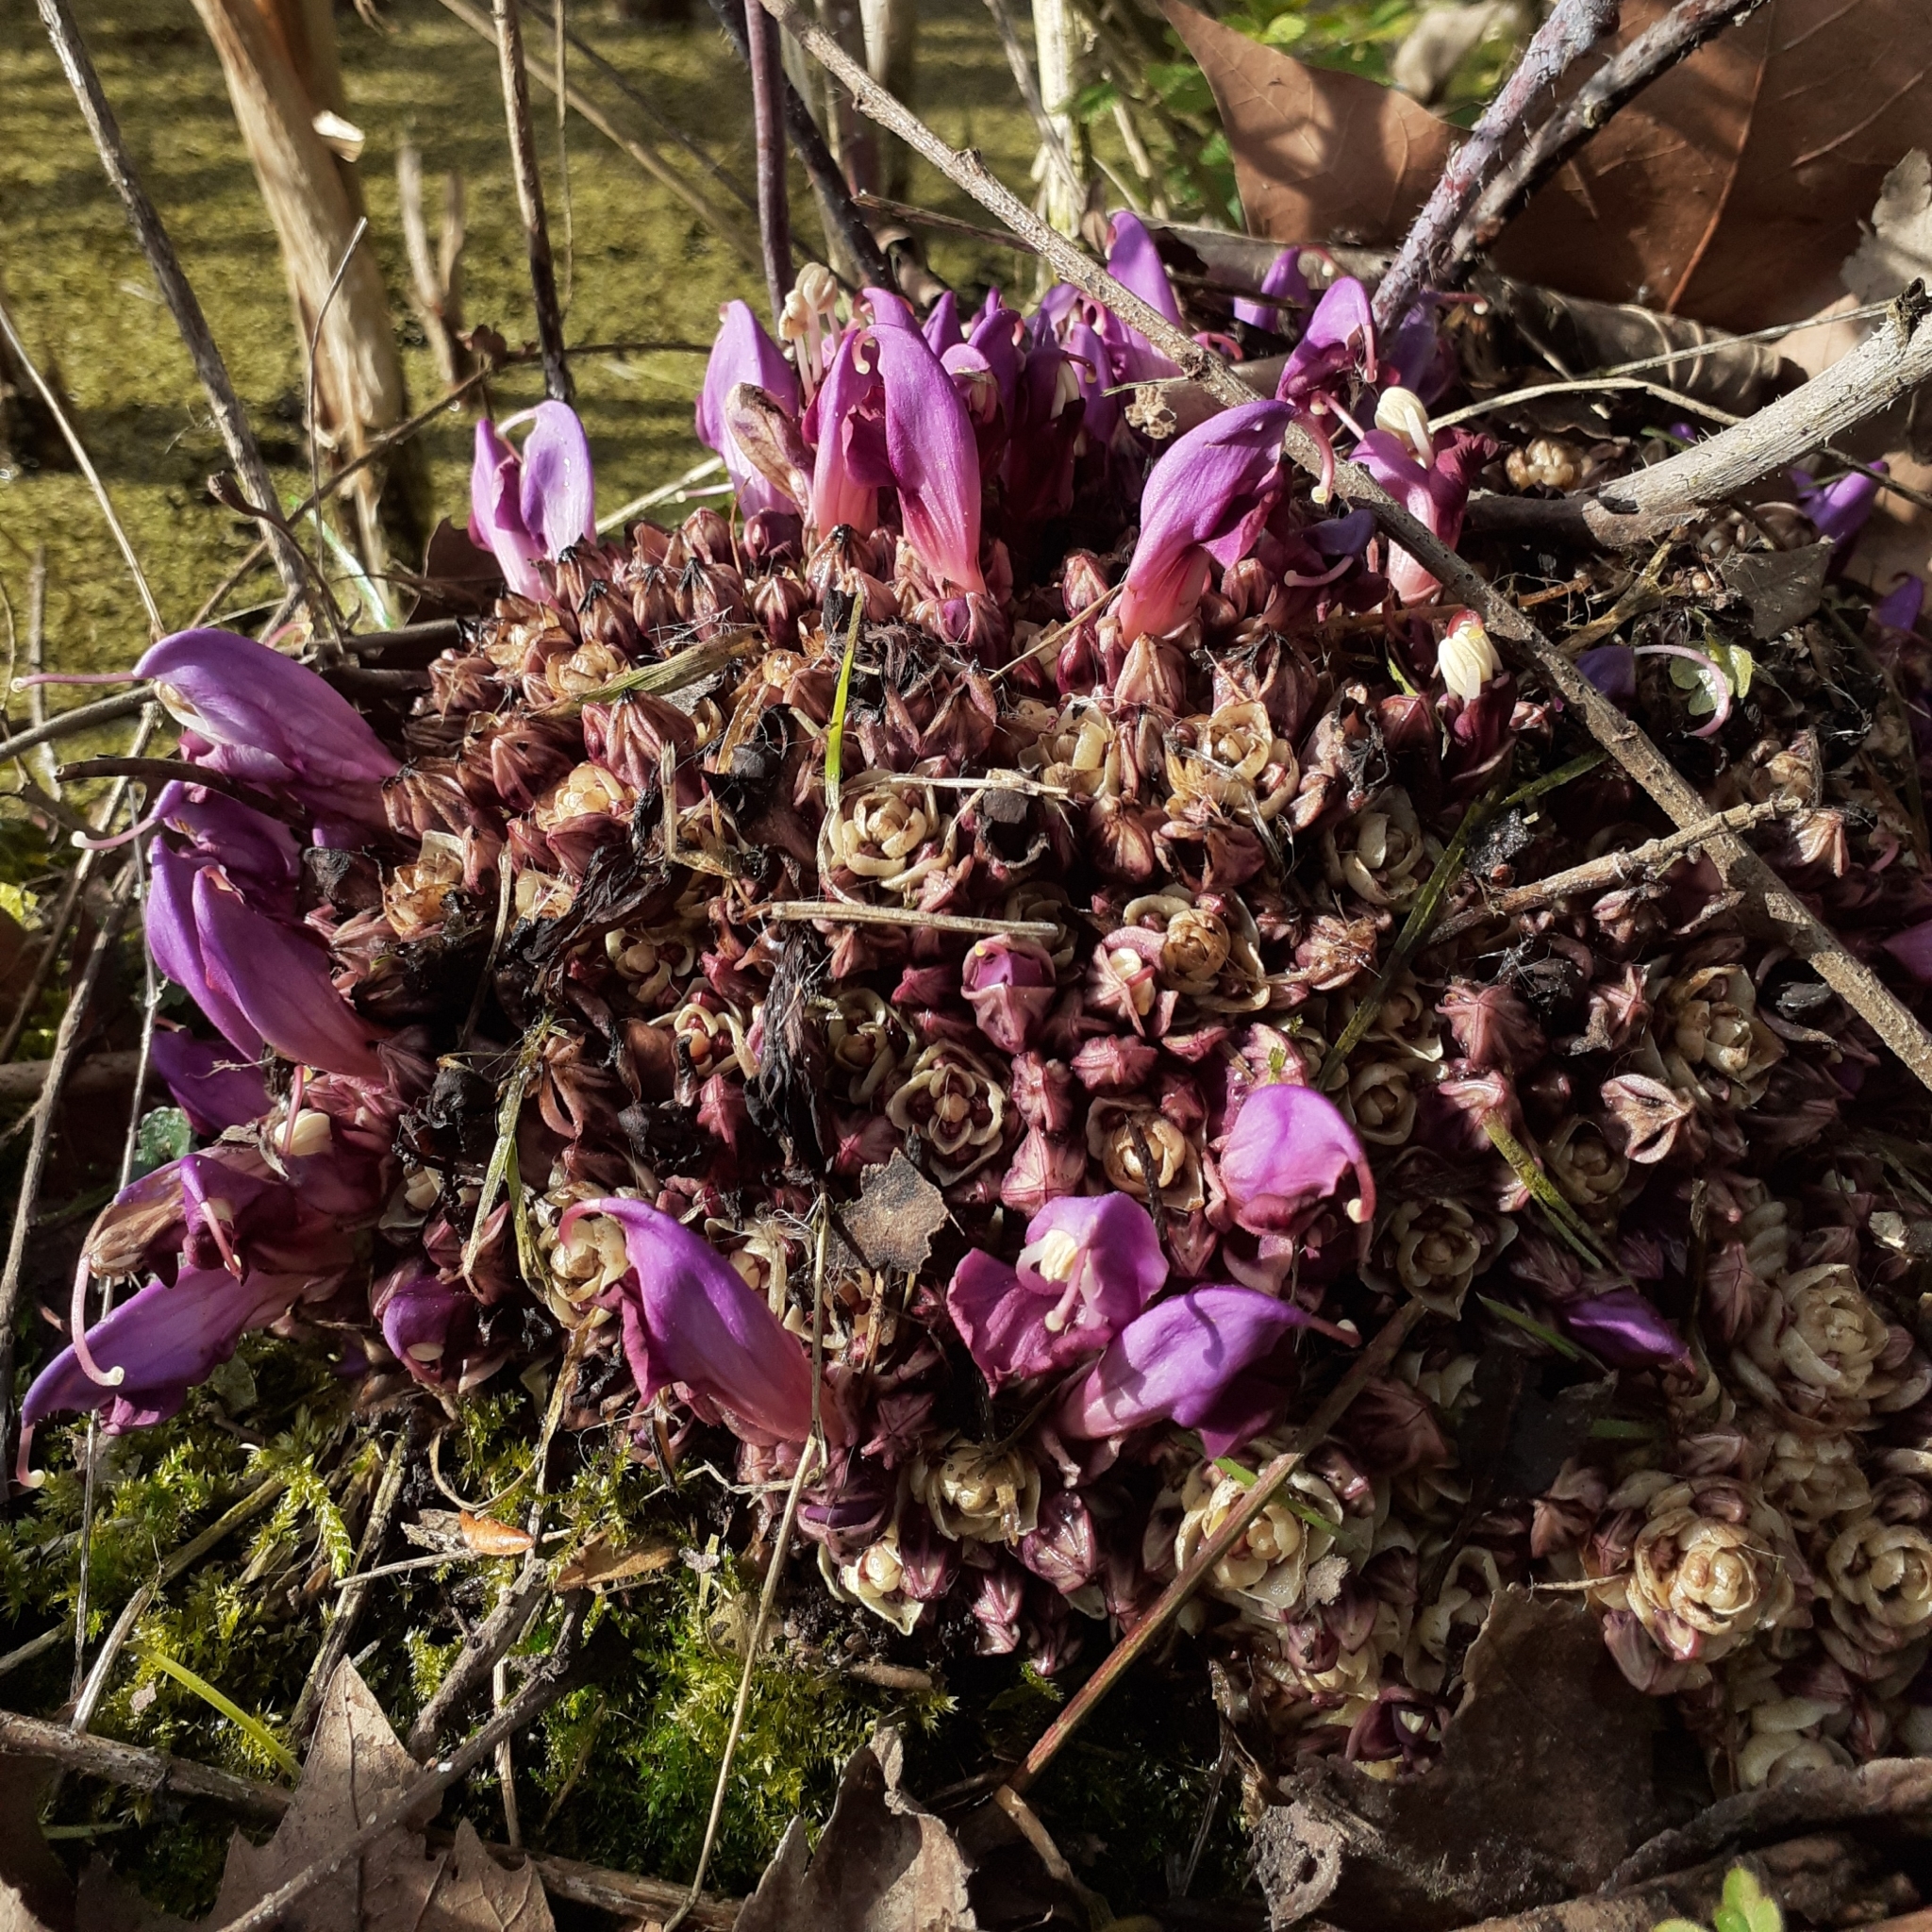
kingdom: Plantae
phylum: Tracheophyta
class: Magnoliopsida
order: Lamiales
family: Orobanchaceae
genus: Lathraea
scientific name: Lathraea clandestina
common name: Purple toothwort
